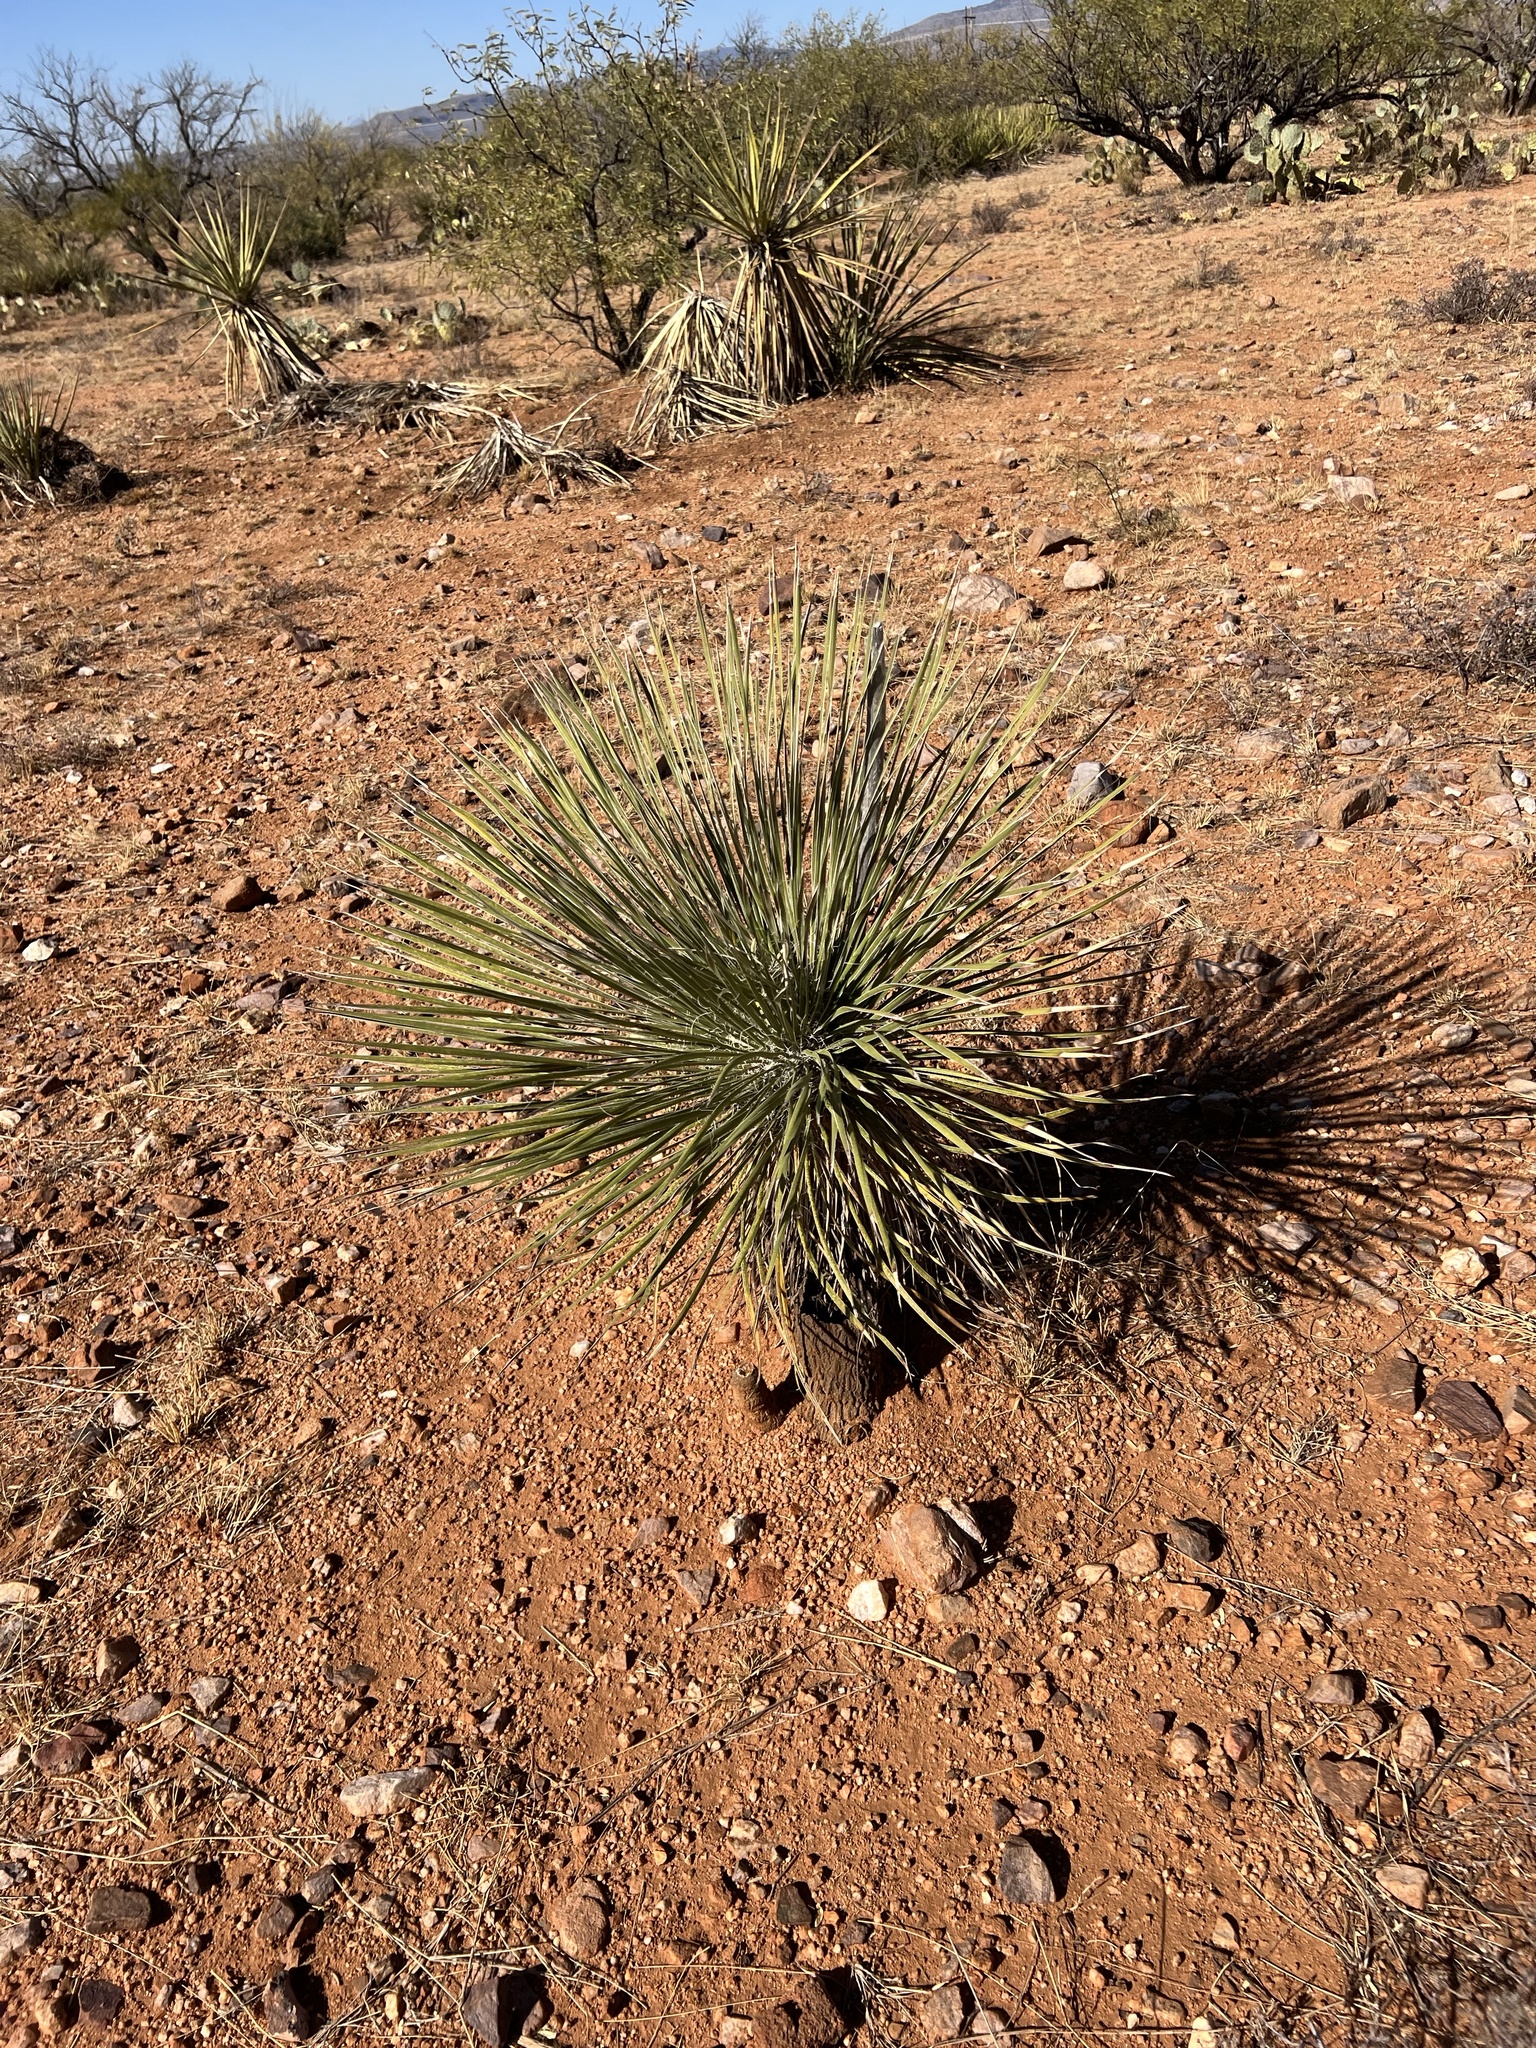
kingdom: Plantae
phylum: Tracheophyta
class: Liliopsida
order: Asparagales
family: Asparagaceae
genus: Yucca
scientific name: Yucca elata
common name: Palmella
